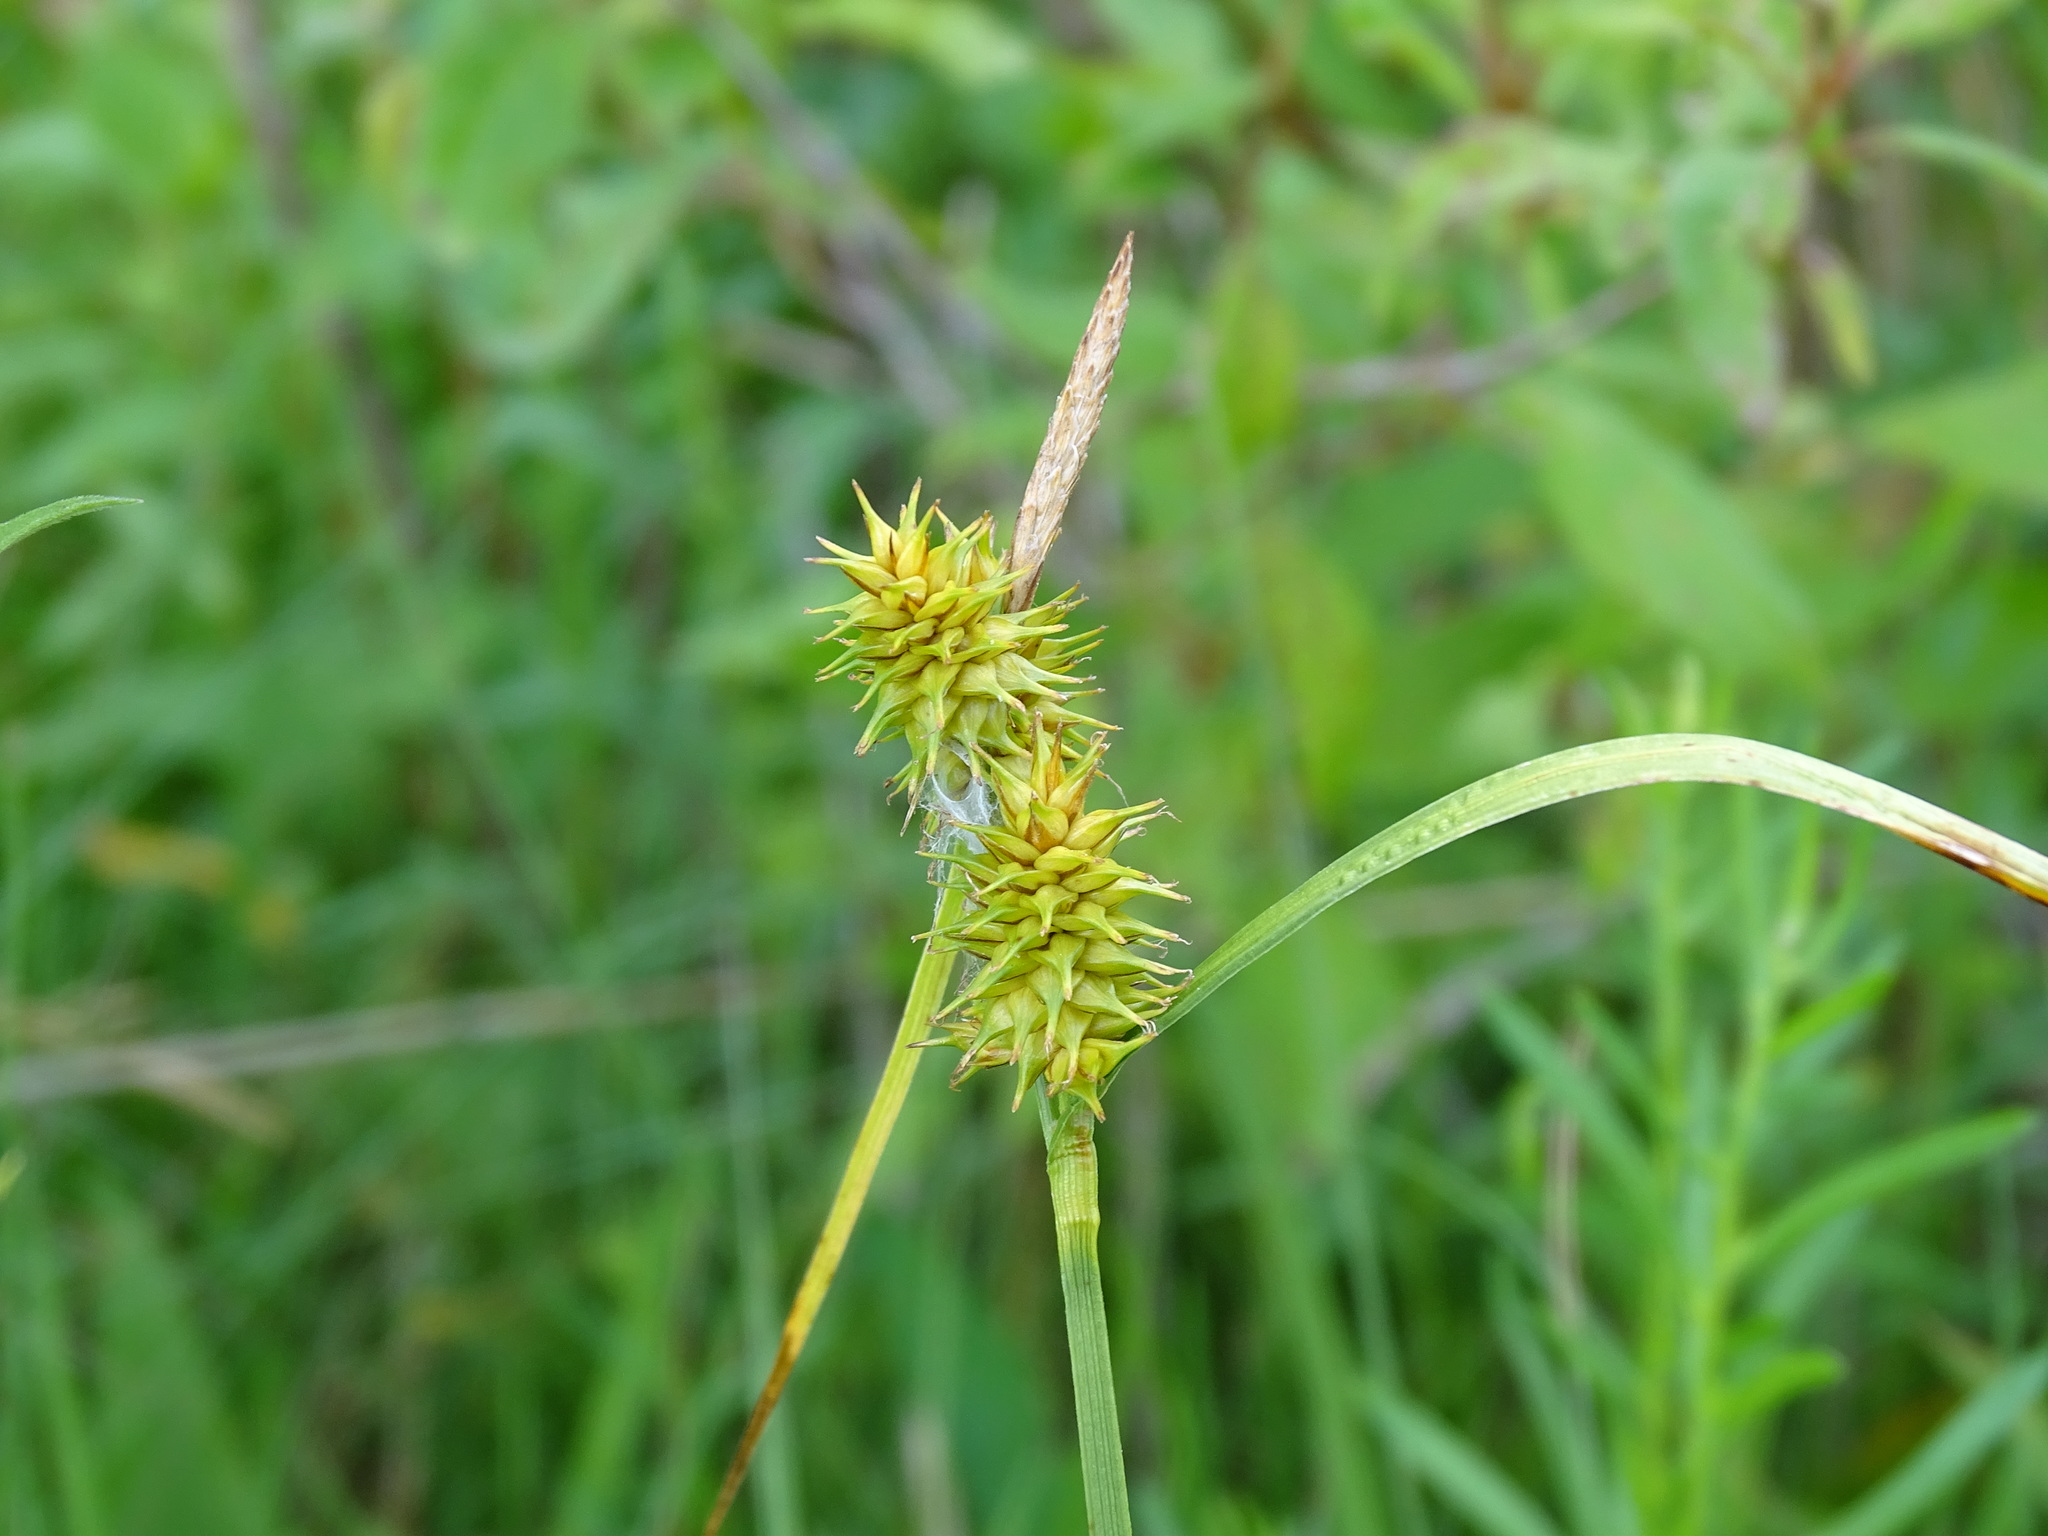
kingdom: Plantae
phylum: Tracheophyta
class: Liliopsida
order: Poales
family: Cyperaceae
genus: Carex
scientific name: Carex flava
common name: Large yellow-sedge
